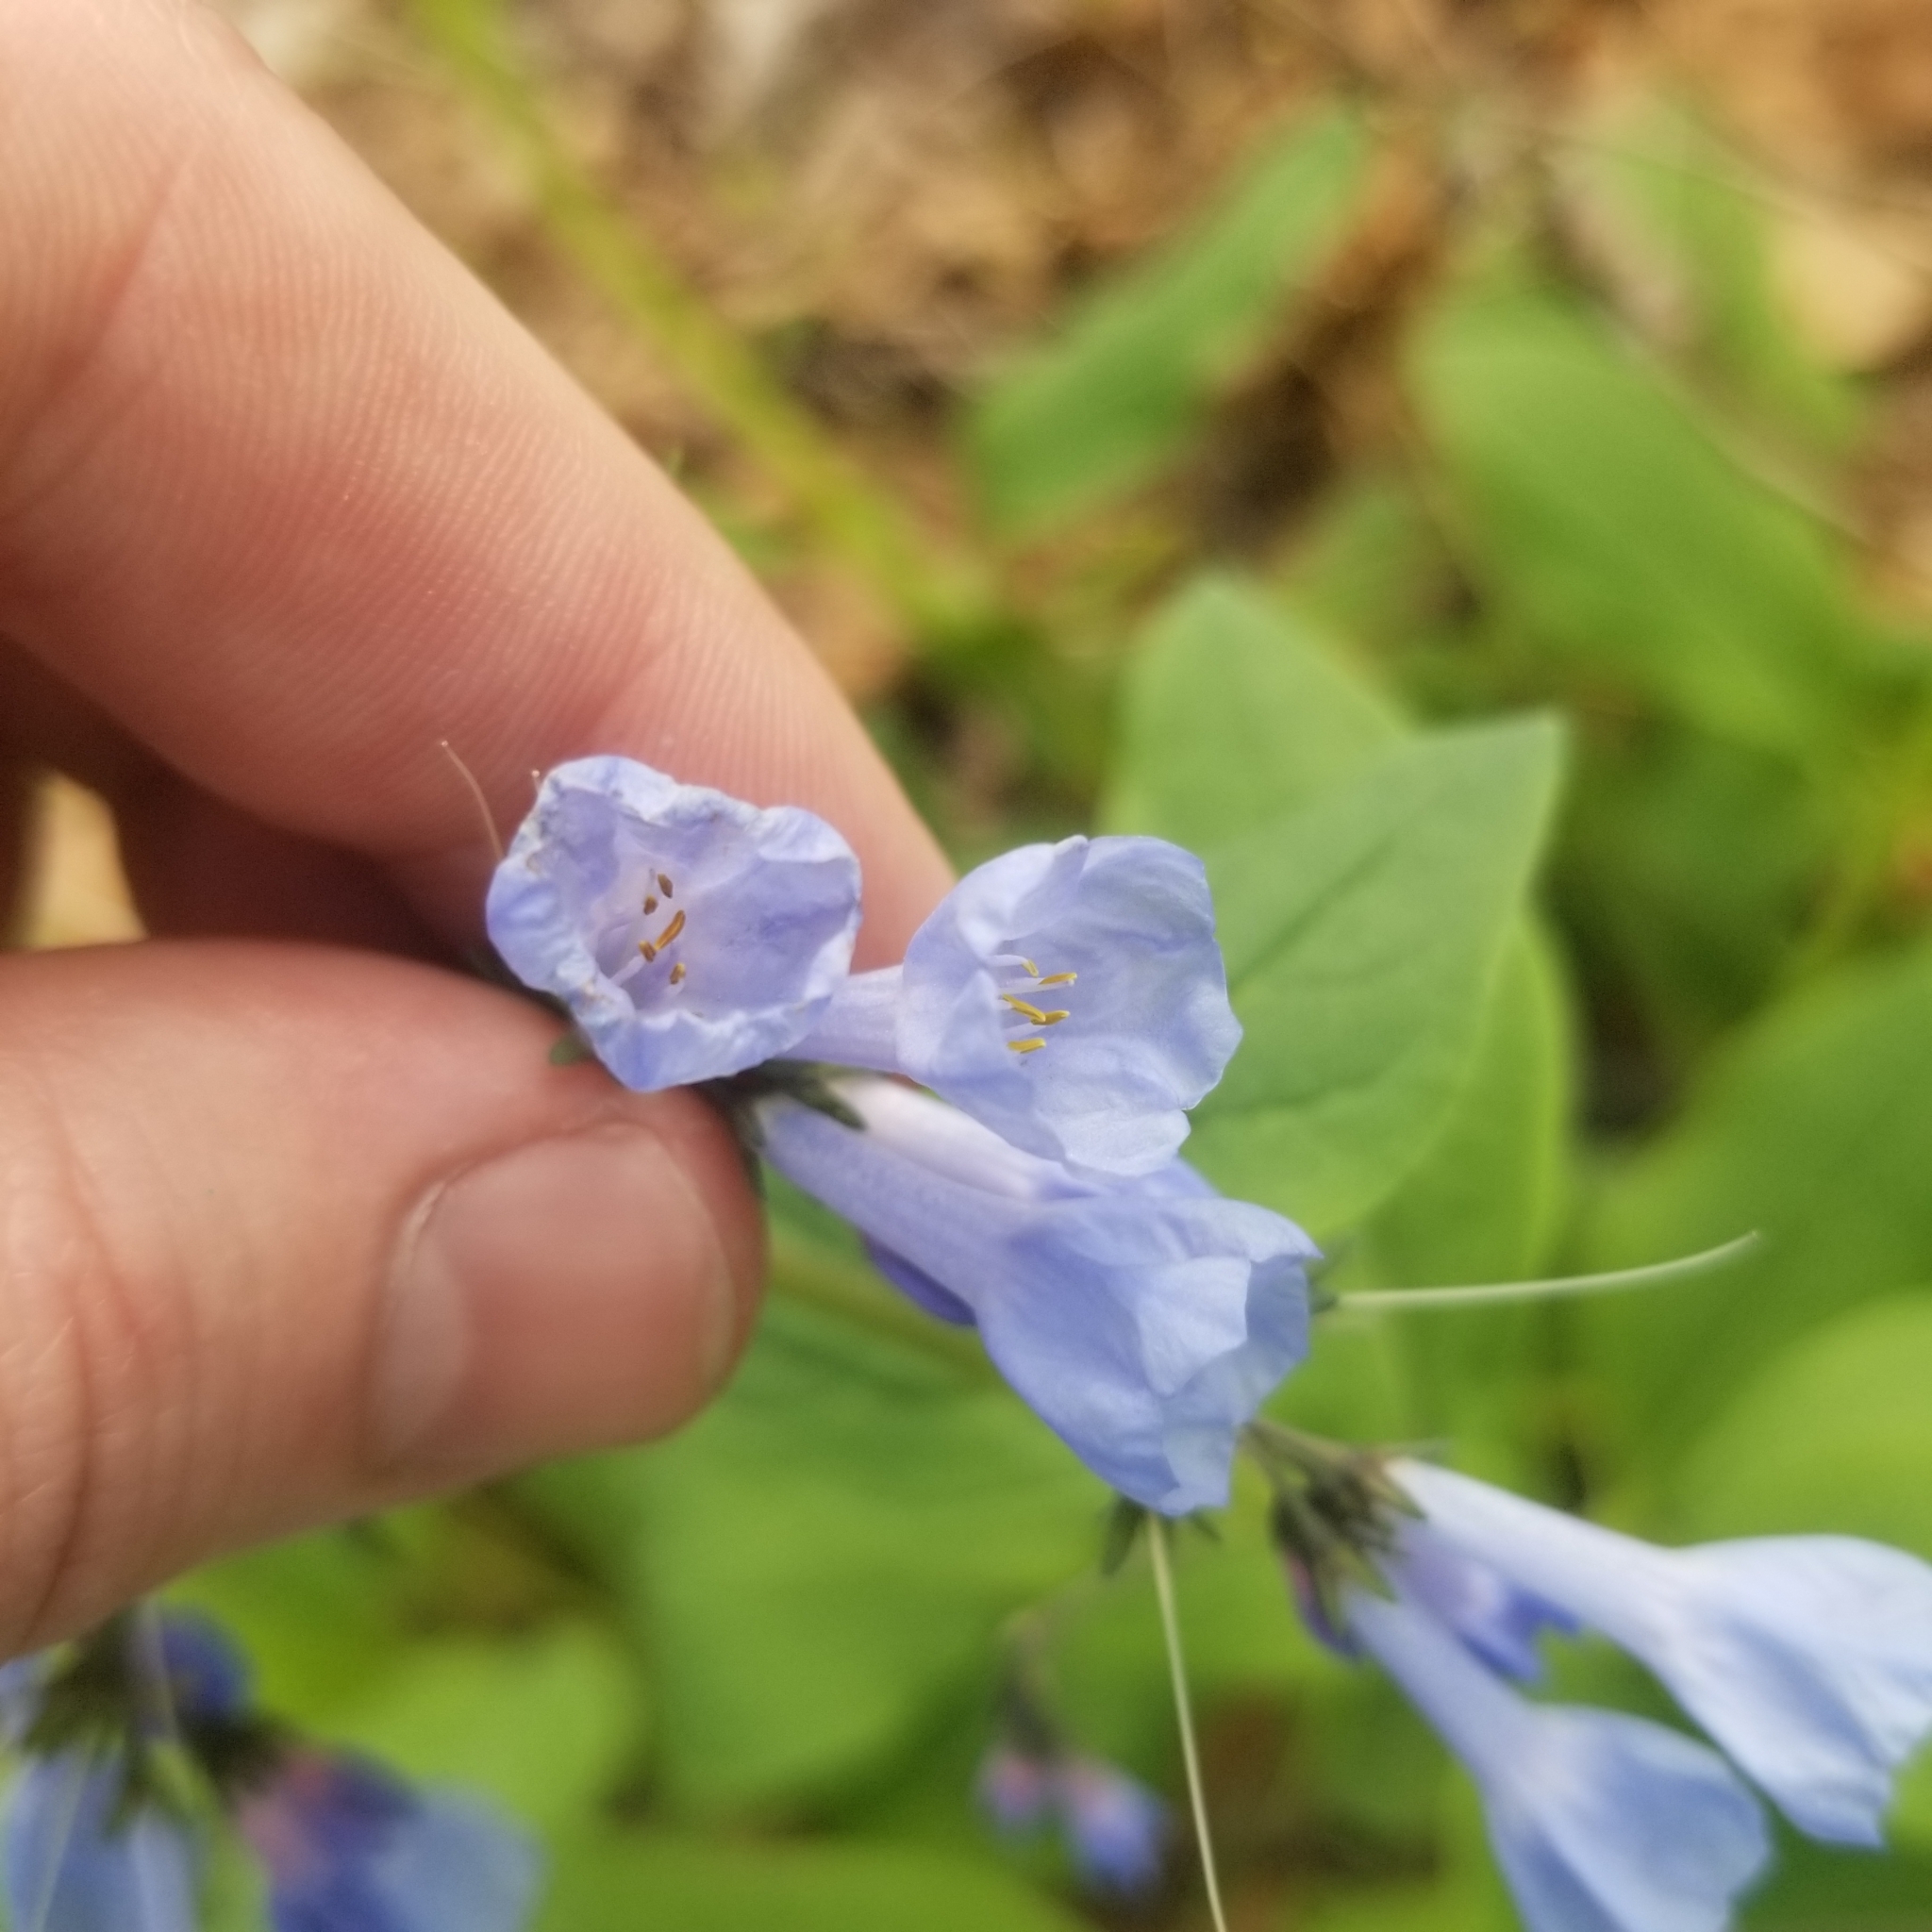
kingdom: Plantae
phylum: Tracheophyta
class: Magnoliopsida
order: Boraginales
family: Boraginaceae
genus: Mertensia
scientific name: Mertensia virginica
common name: Virginia bluebells
